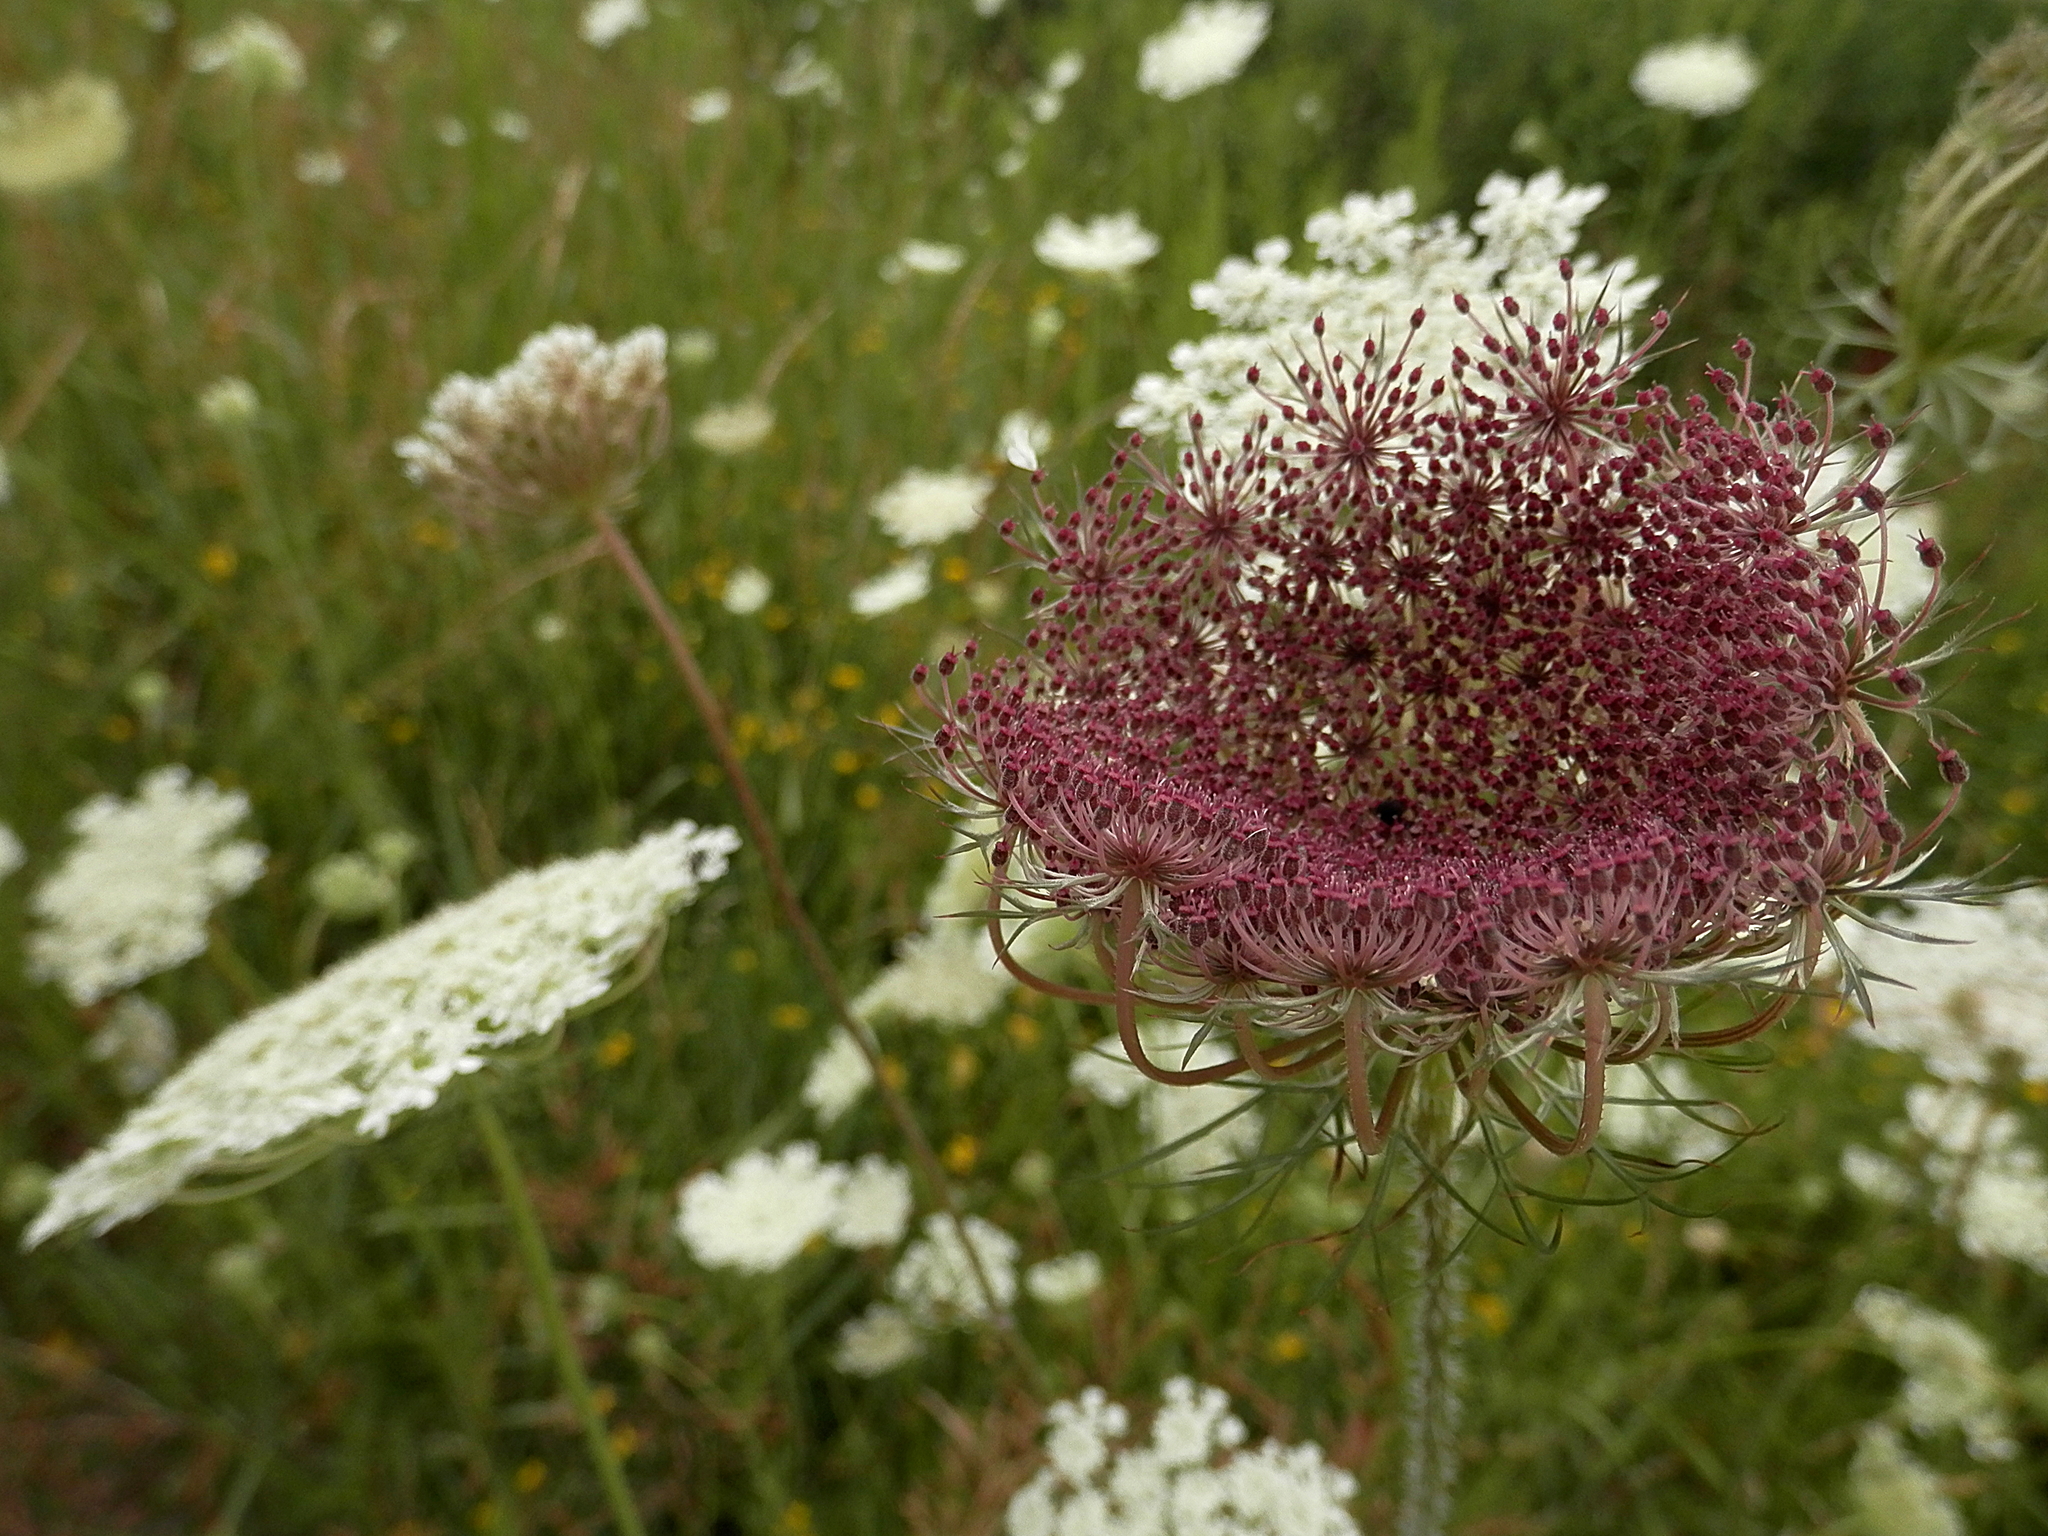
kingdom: Plantae
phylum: Tracheophyta
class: Magnoliopsida
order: Apiales
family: Apiaceae
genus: Daucus
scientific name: Daucus carota
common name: Wild carrot
